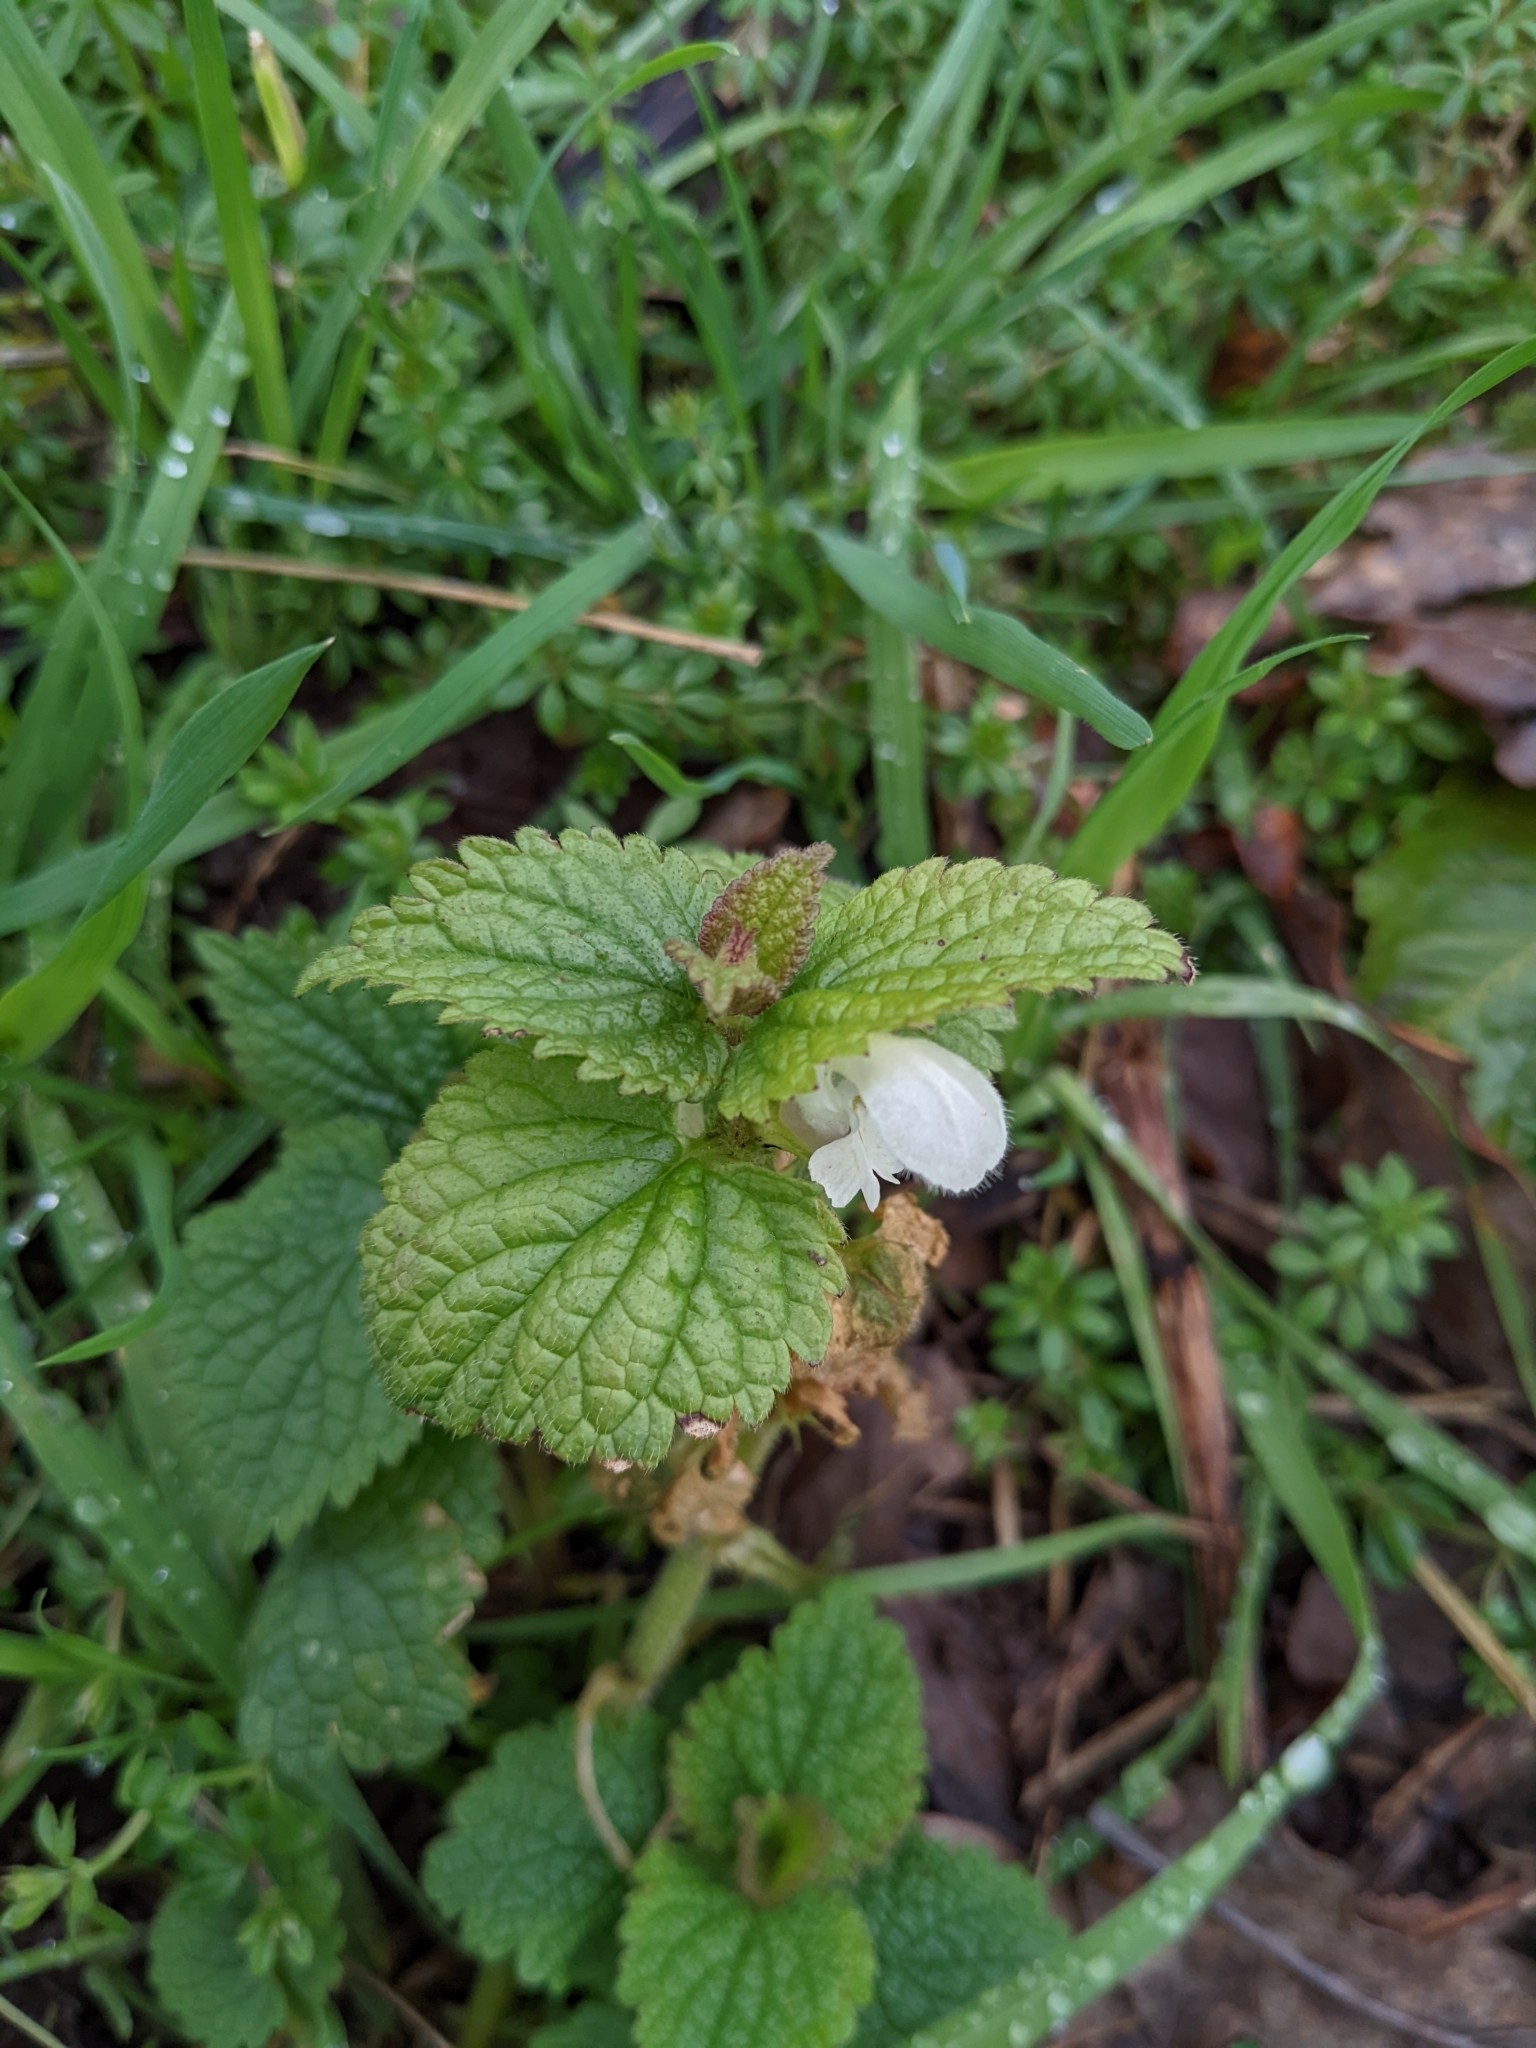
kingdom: Plantae
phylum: Tracheophyta
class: Magnoliopsida
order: Lamiales
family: Lamiaceae
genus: Lamium
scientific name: Lamium album
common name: White dead-nettle
